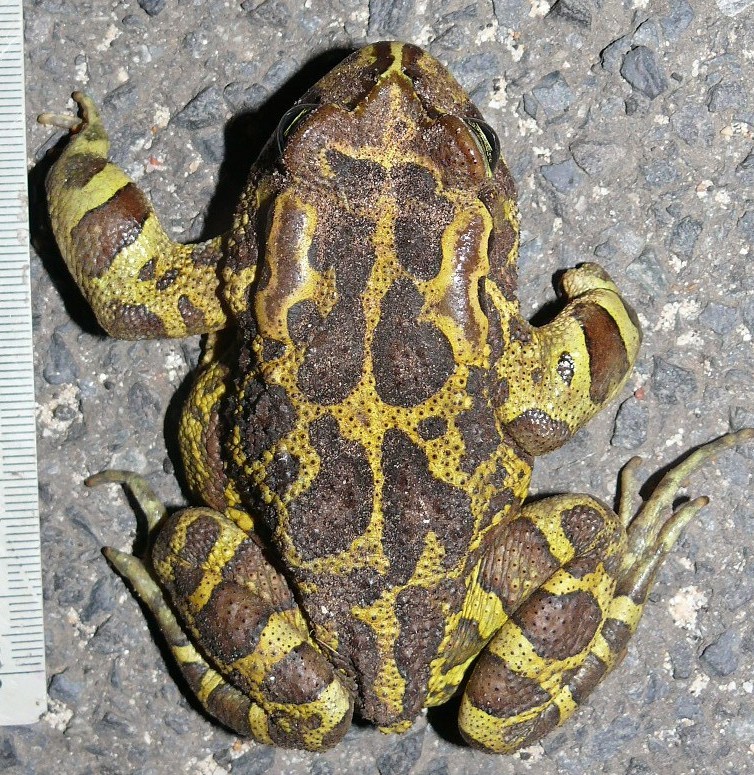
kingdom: Animalia
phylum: Chordata
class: Amphibia
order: Anura
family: Bufonidae
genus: Sclerophrys
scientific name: Sclerophrys pantherina
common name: Panther toad
